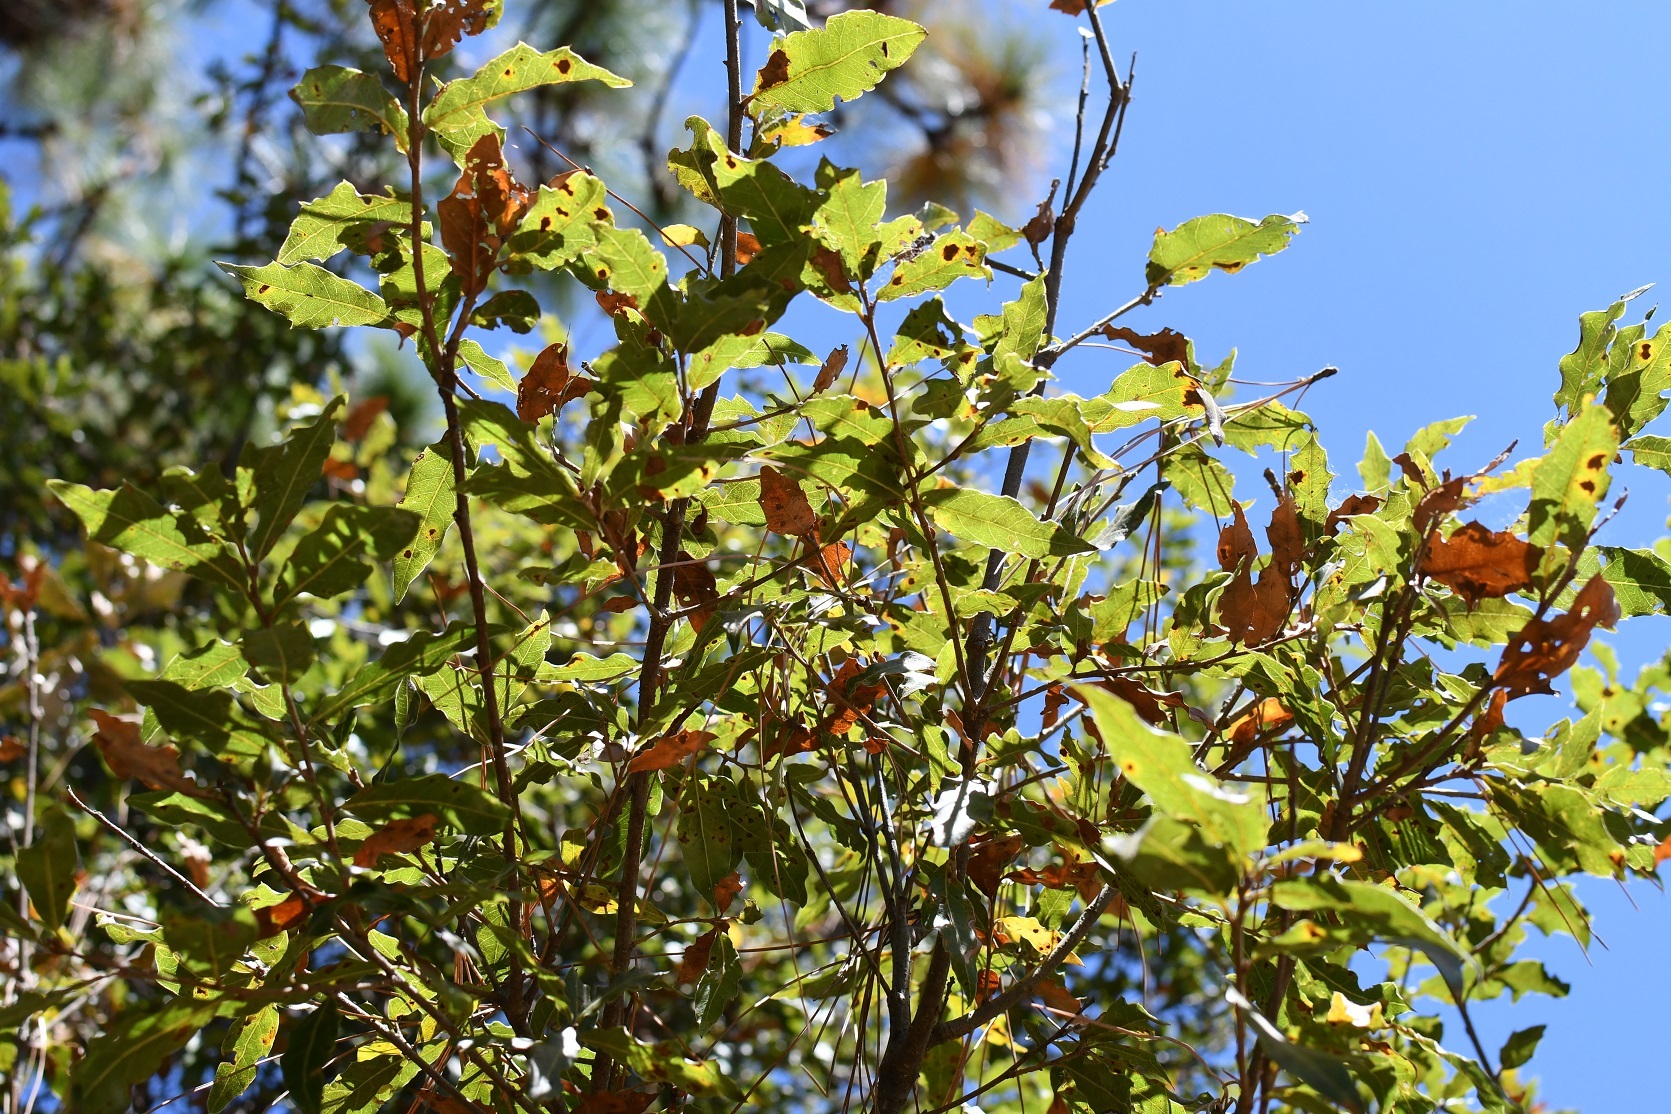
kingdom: Plantae
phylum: Tracheophyta
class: Magnoliopsida
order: Fagales
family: Fagaceae
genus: Quercus
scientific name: Quercus laurina
